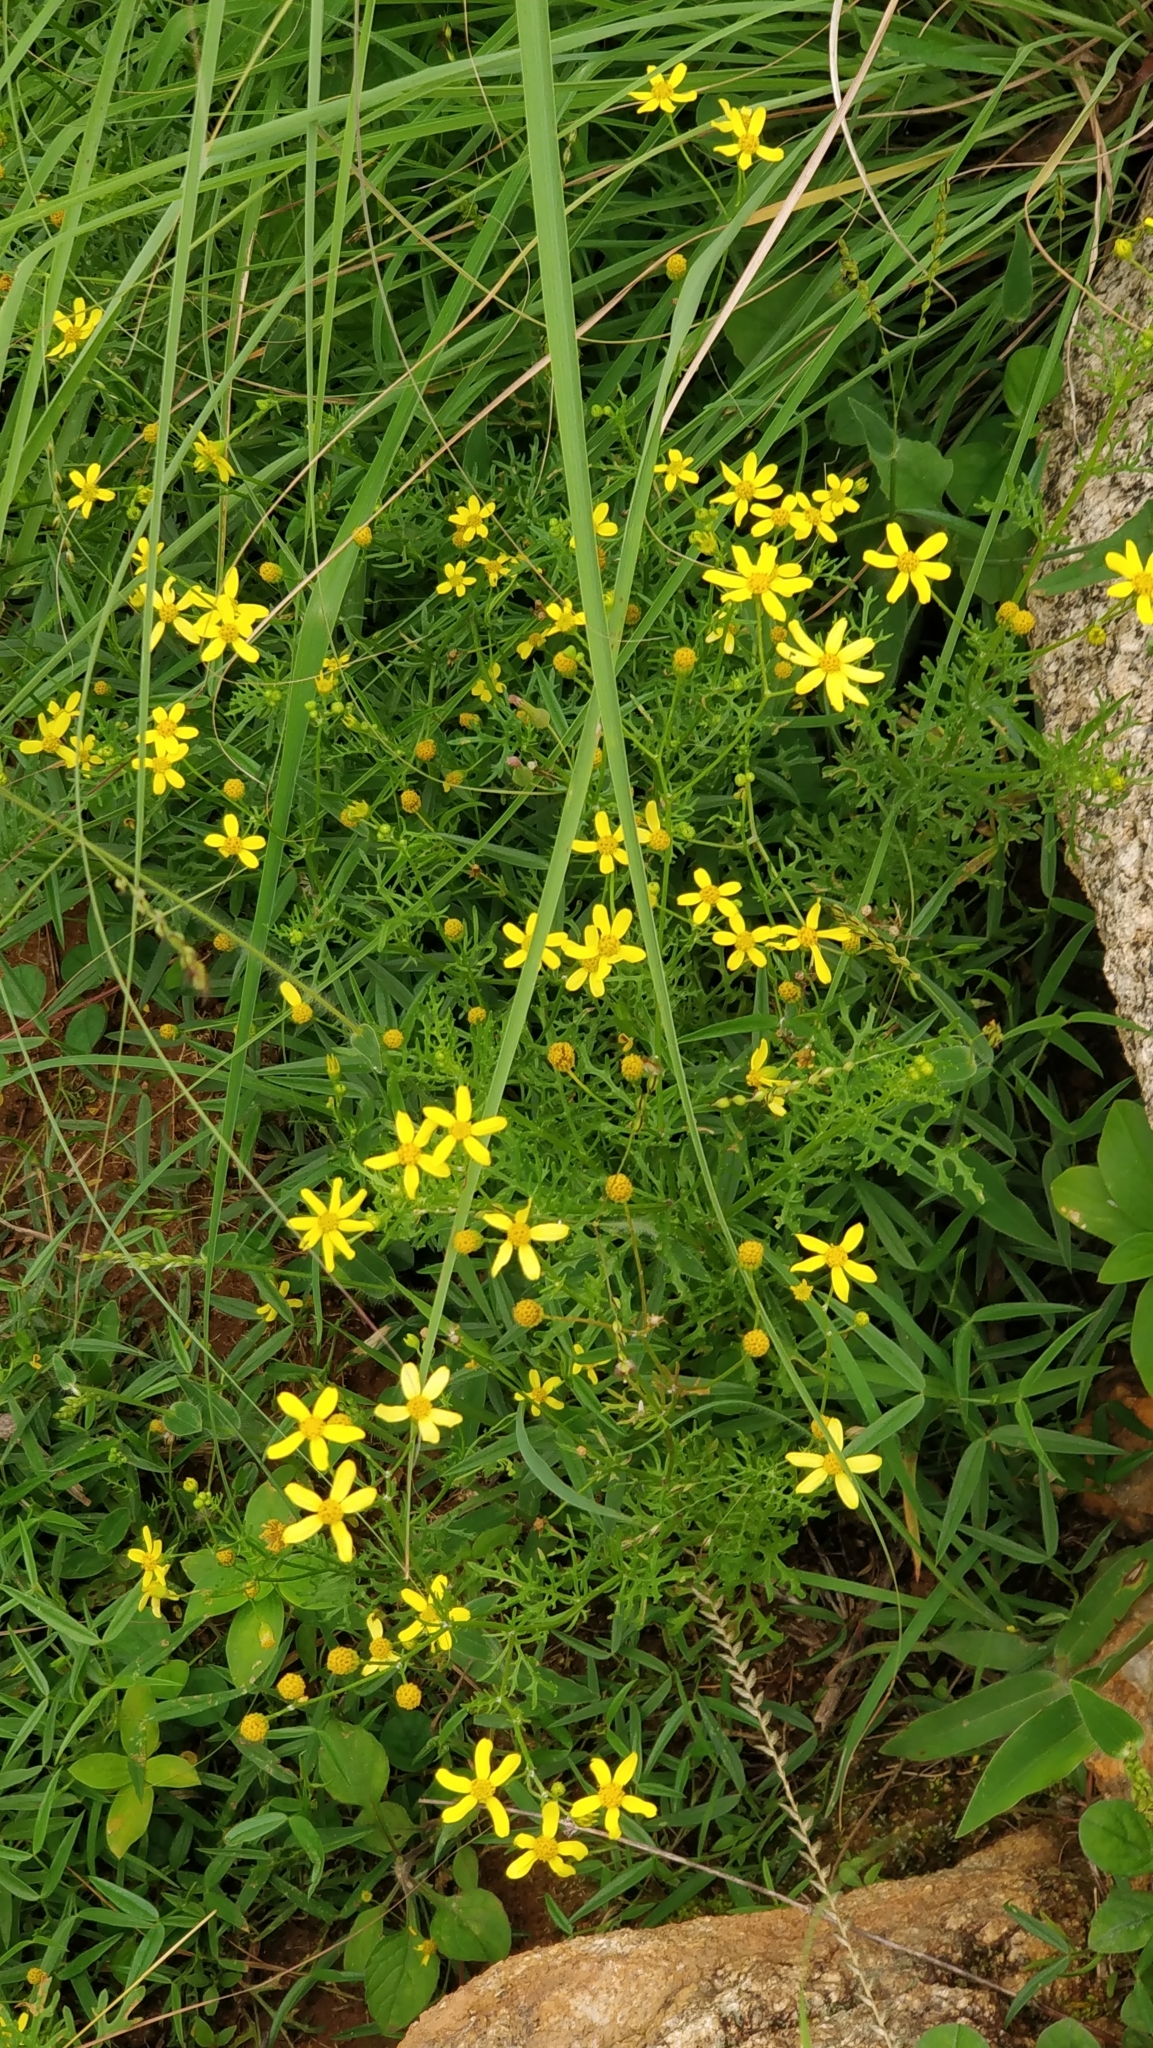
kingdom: Plantae
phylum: Tracheophyta
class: Magnoliopsida
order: Asterales
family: Asteraceae
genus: Senecio
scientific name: Senecio tenuifolius
